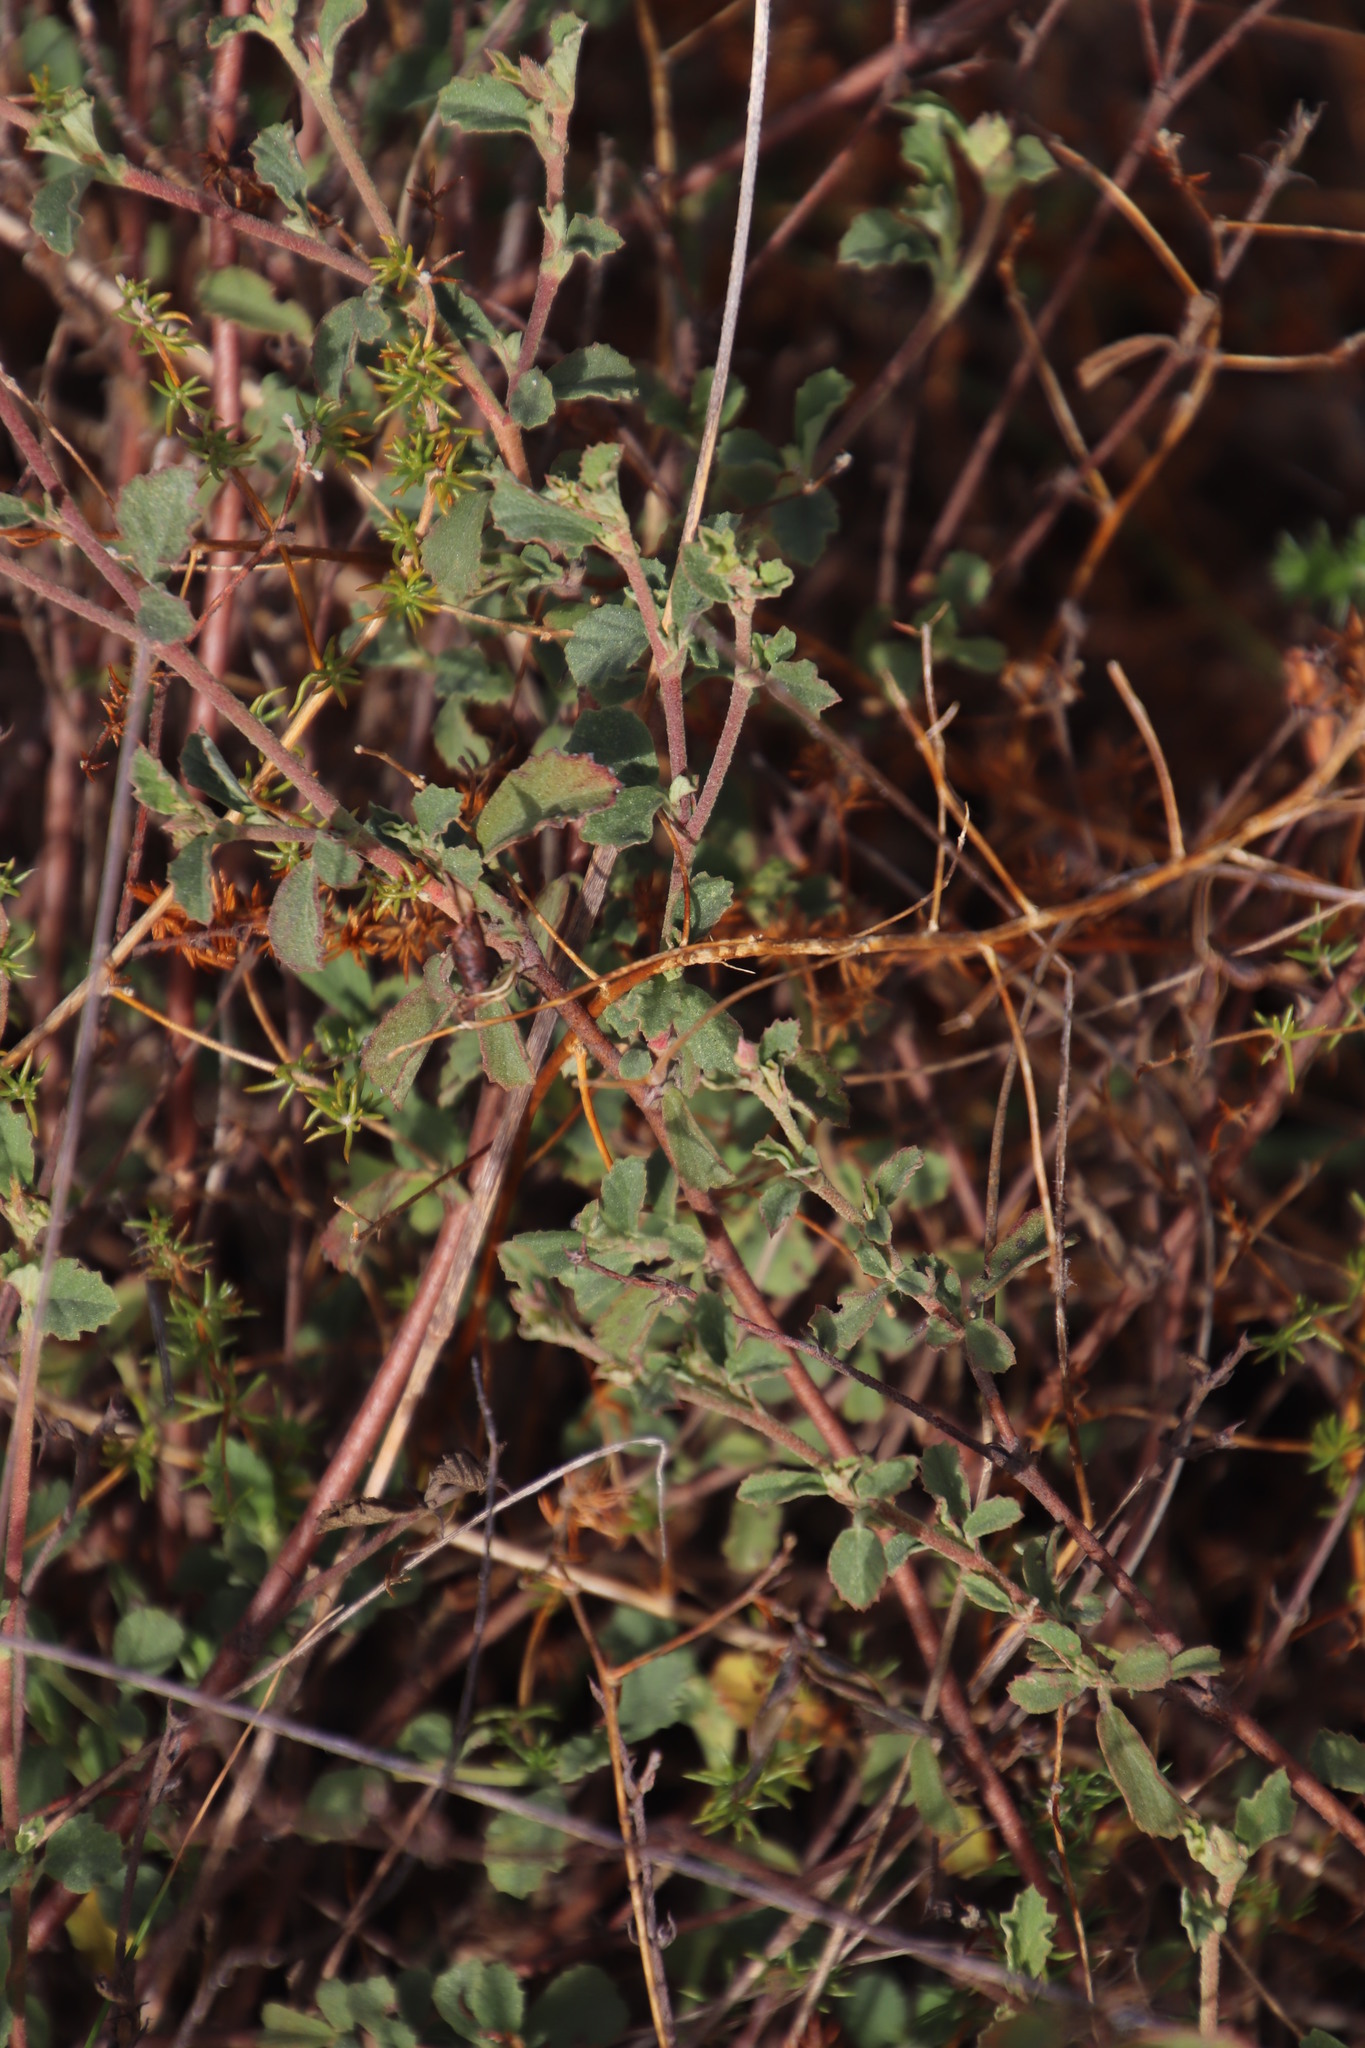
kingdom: Plantae
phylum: Tracheophyta
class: Magnoliopsida
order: Malvales
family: Malvaceae
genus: Hermannia
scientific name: Hermannia multiflora
